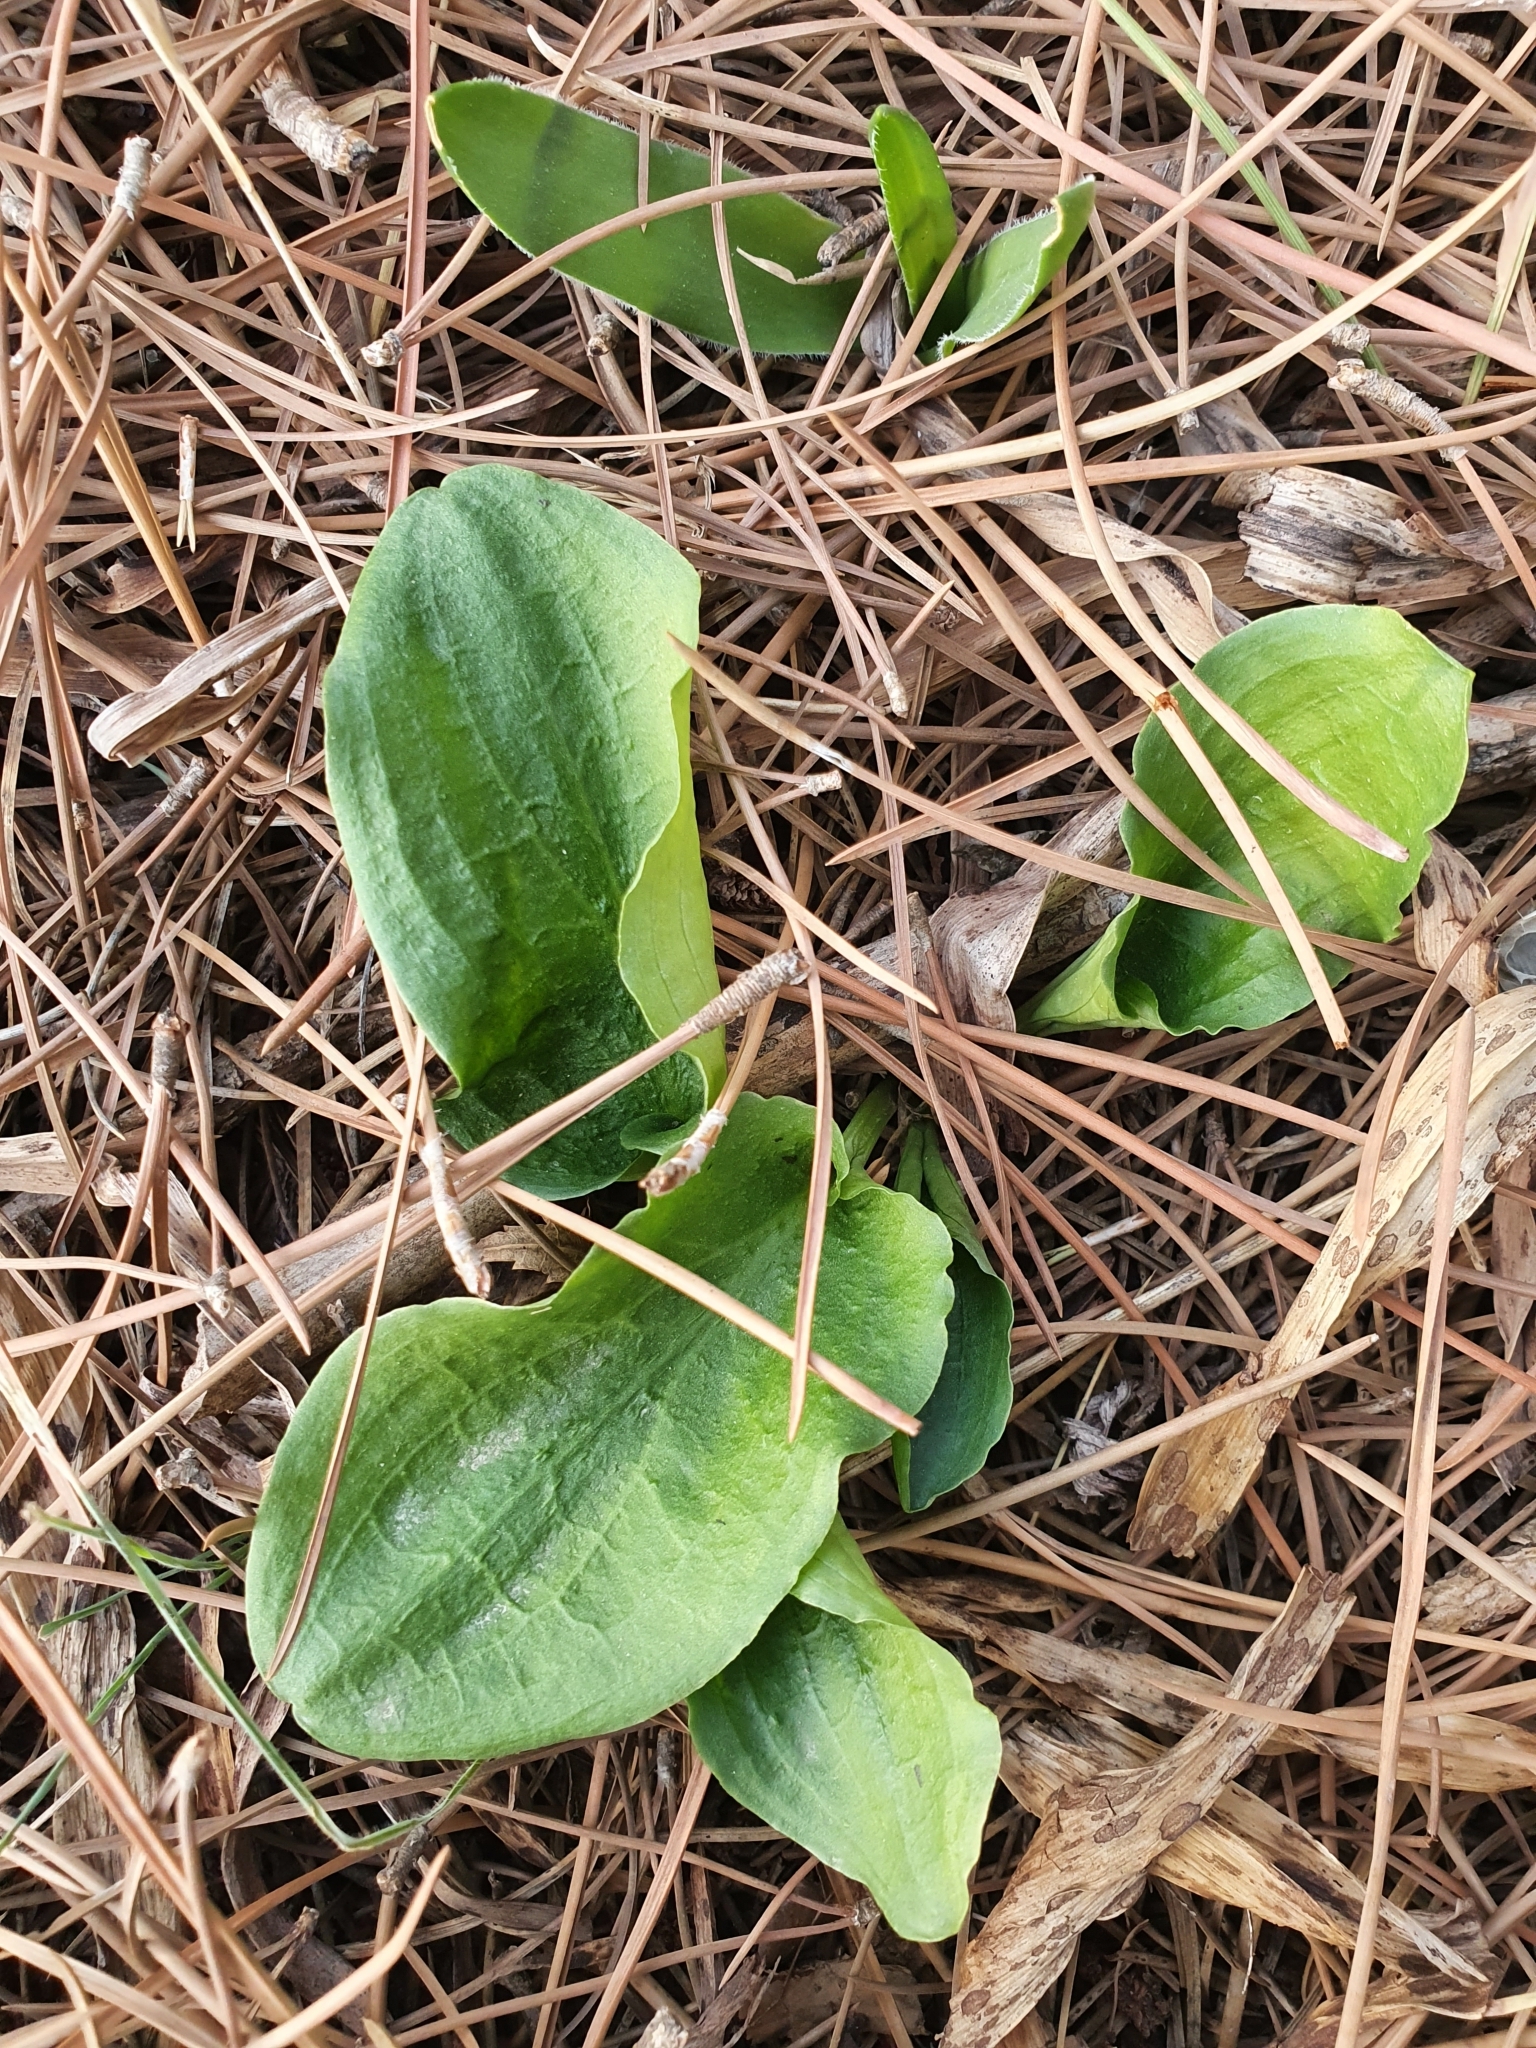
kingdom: Plantae
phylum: Tracheophyta
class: Liliopsida
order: Alismatales
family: Araceae
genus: Ambrosina
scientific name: Ambrosina bassii
